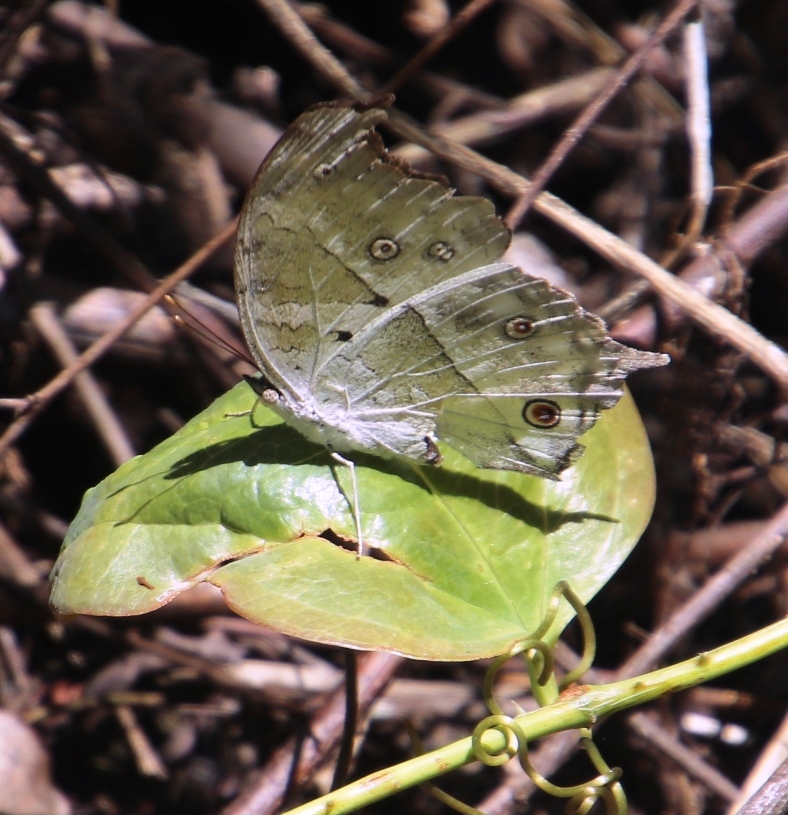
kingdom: Animalia
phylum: Arthropoda
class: Insecta
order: Lepidoptera
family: Nymphalidae
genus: Salamis
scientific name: Salamis Protogoniomorpha parhassus
